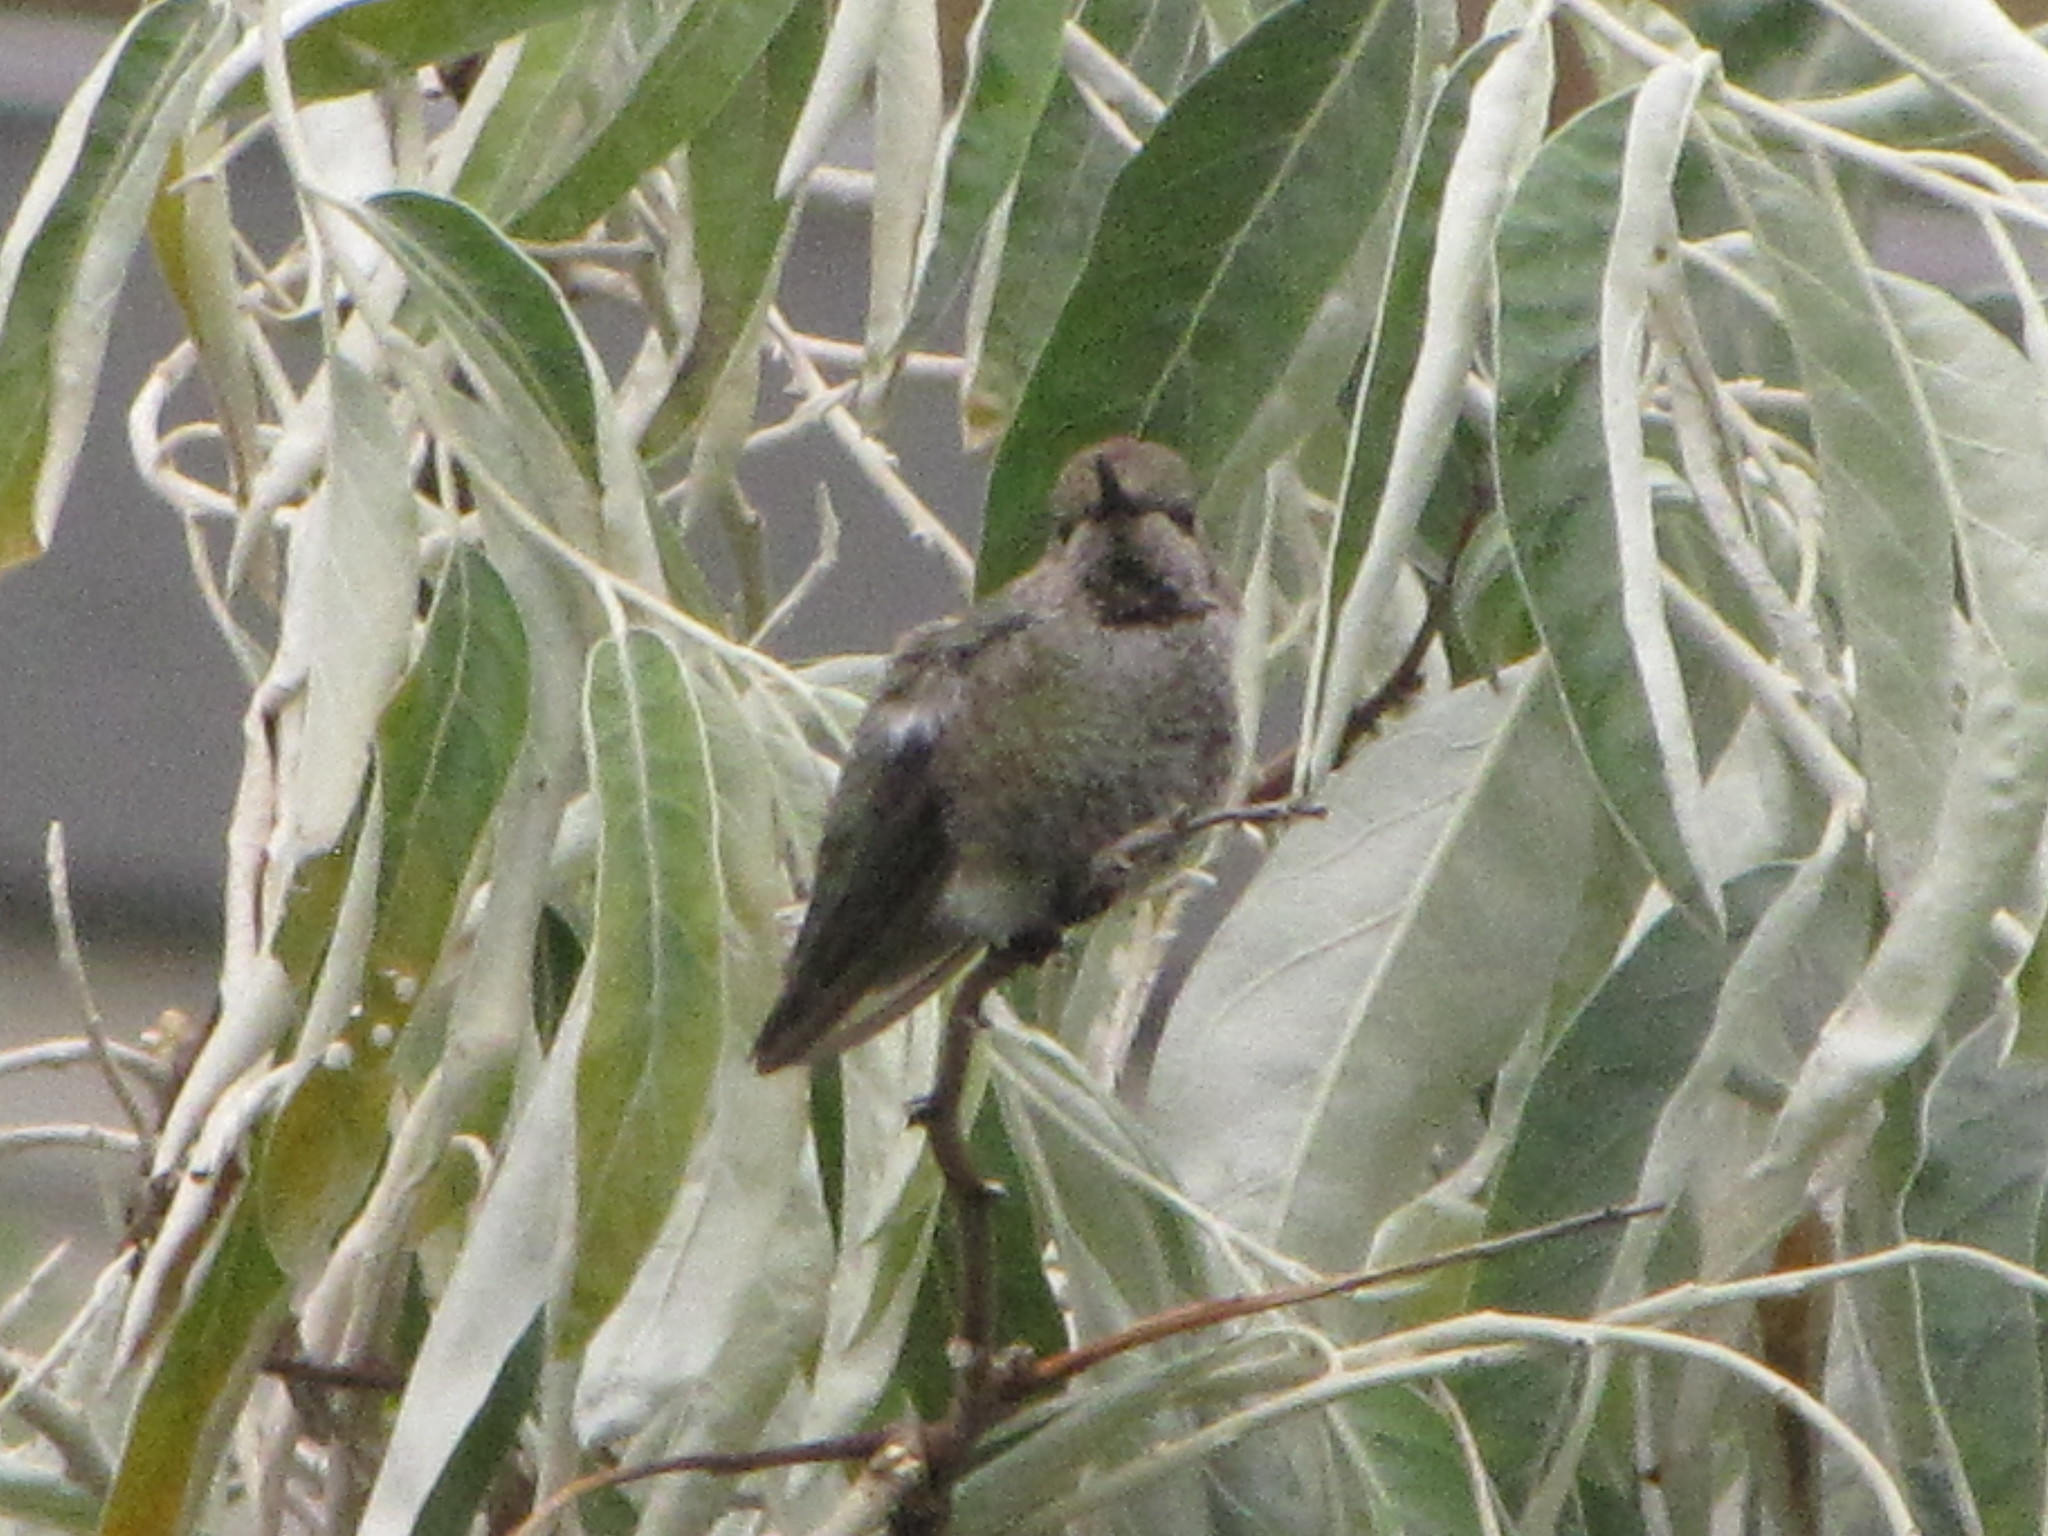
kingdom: Animalia
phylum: Chordata
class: Aves
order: Apodiformes
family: Trochilidae
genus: Calypte
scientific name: Calypte anna
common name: Anna's hummingbird
